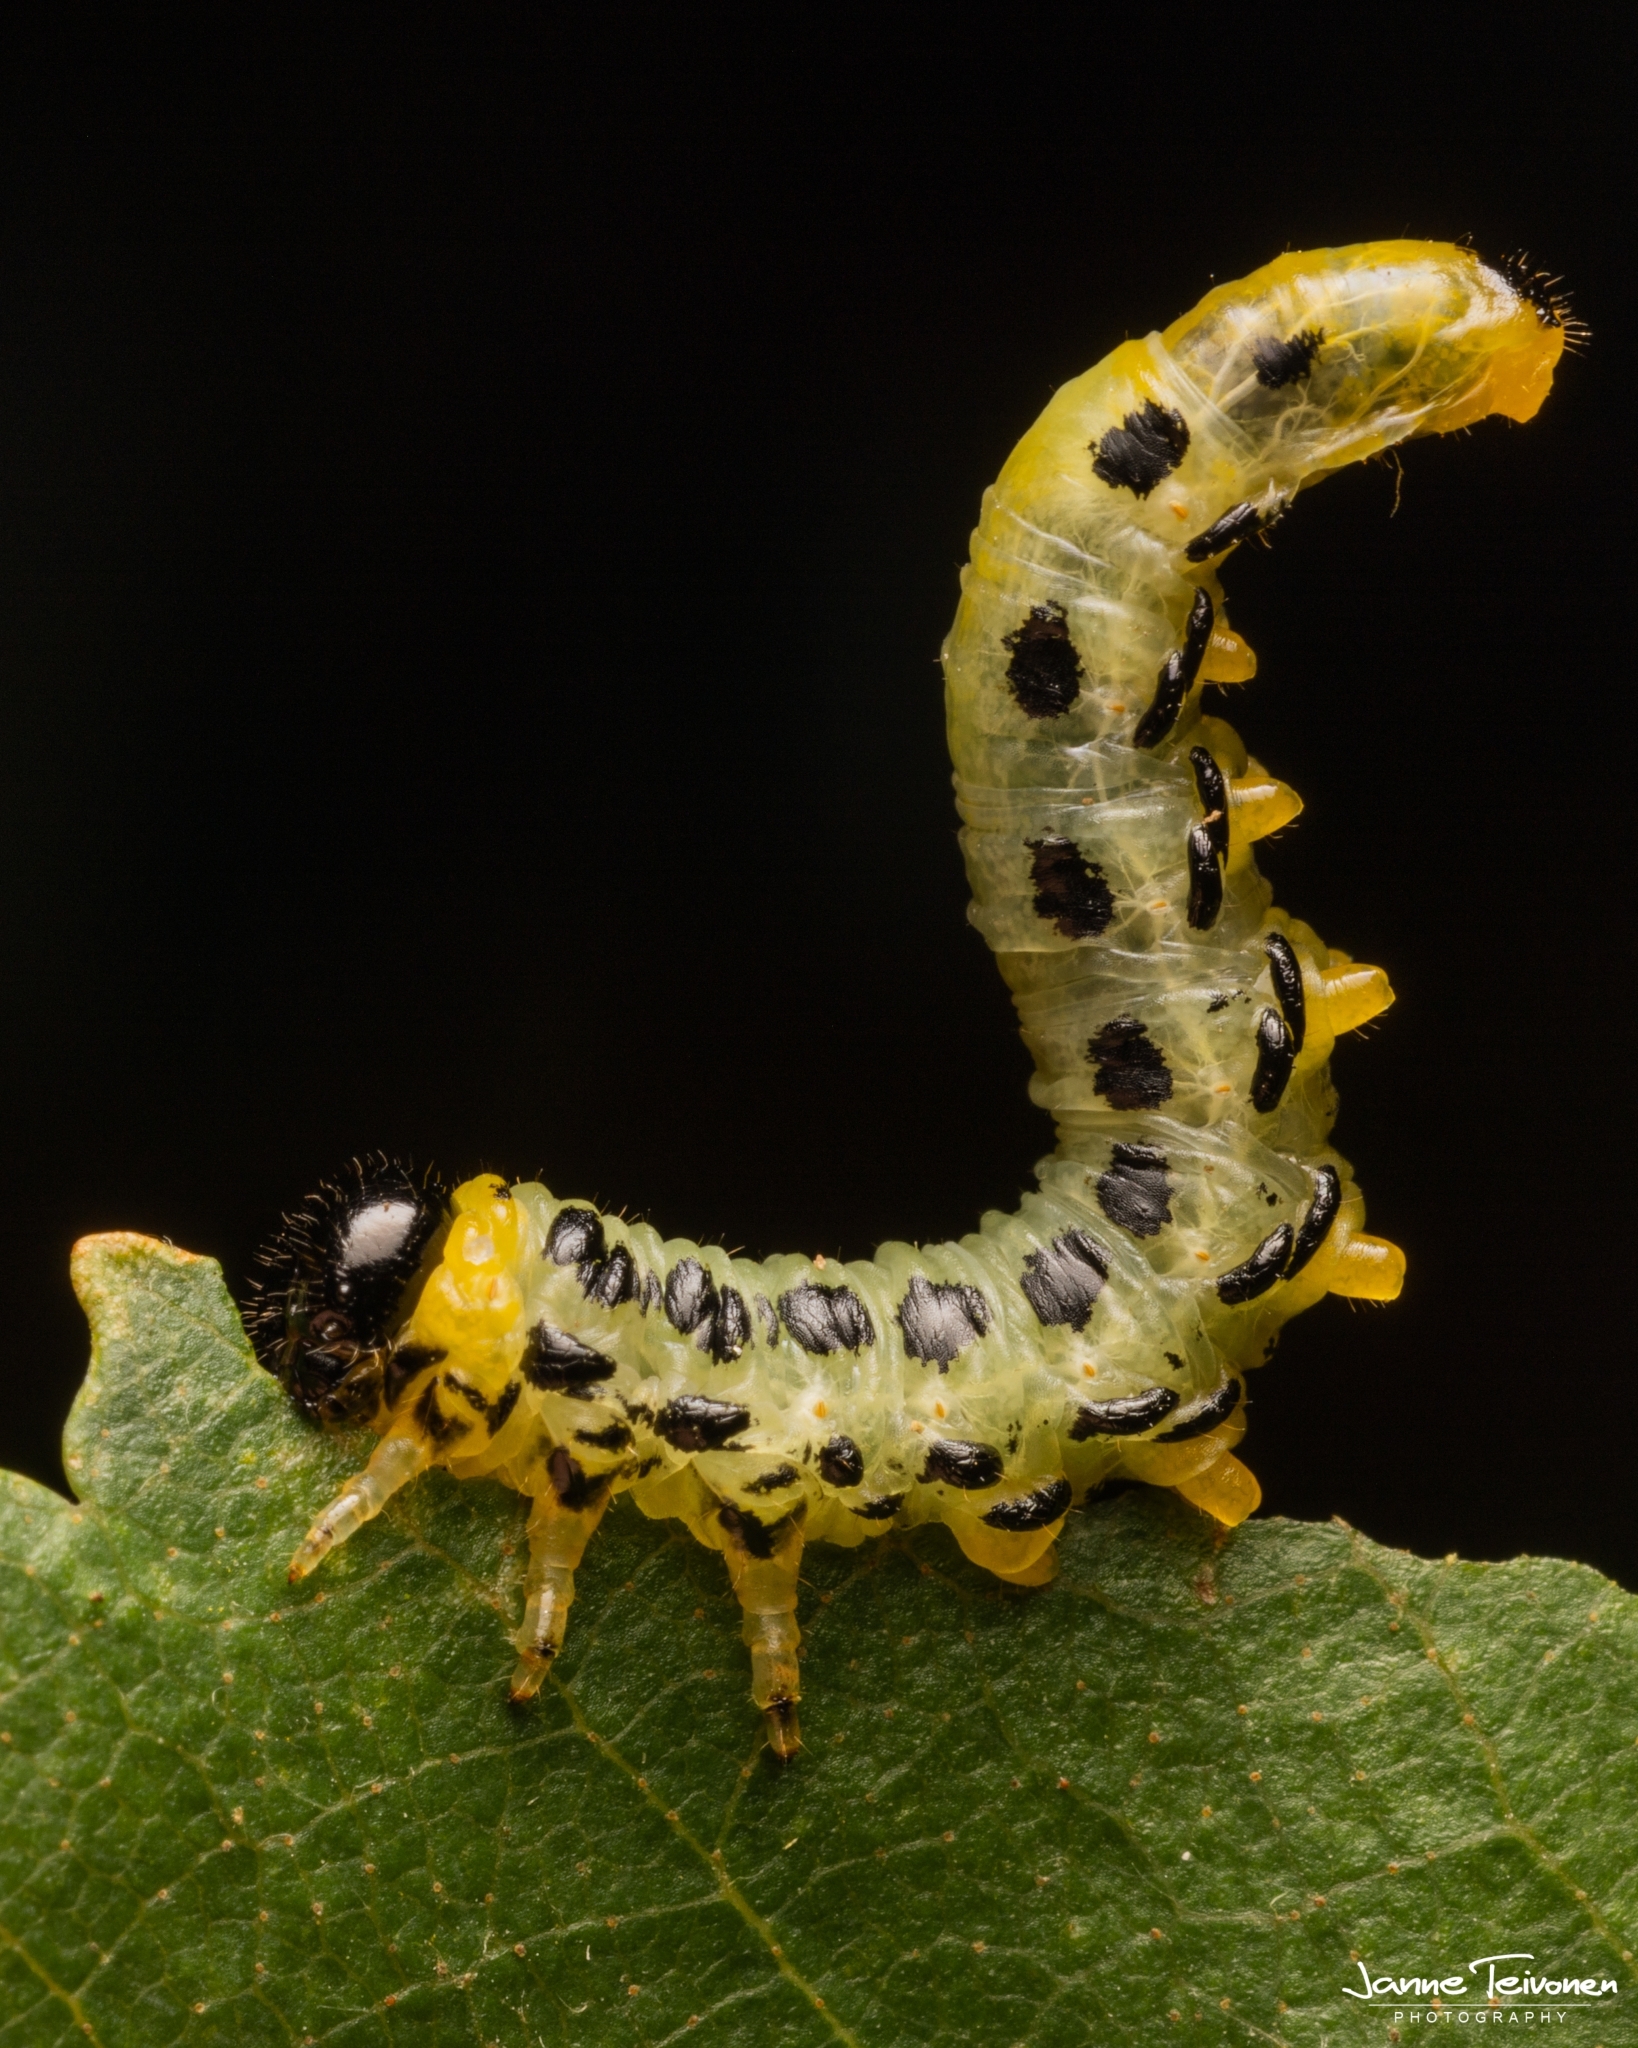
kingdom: Animalia
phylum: Arthropoda
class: Insecta
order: Hymenoptera
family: Tenthredinidae
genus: Craesus
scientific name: Craesus septentrionalis
